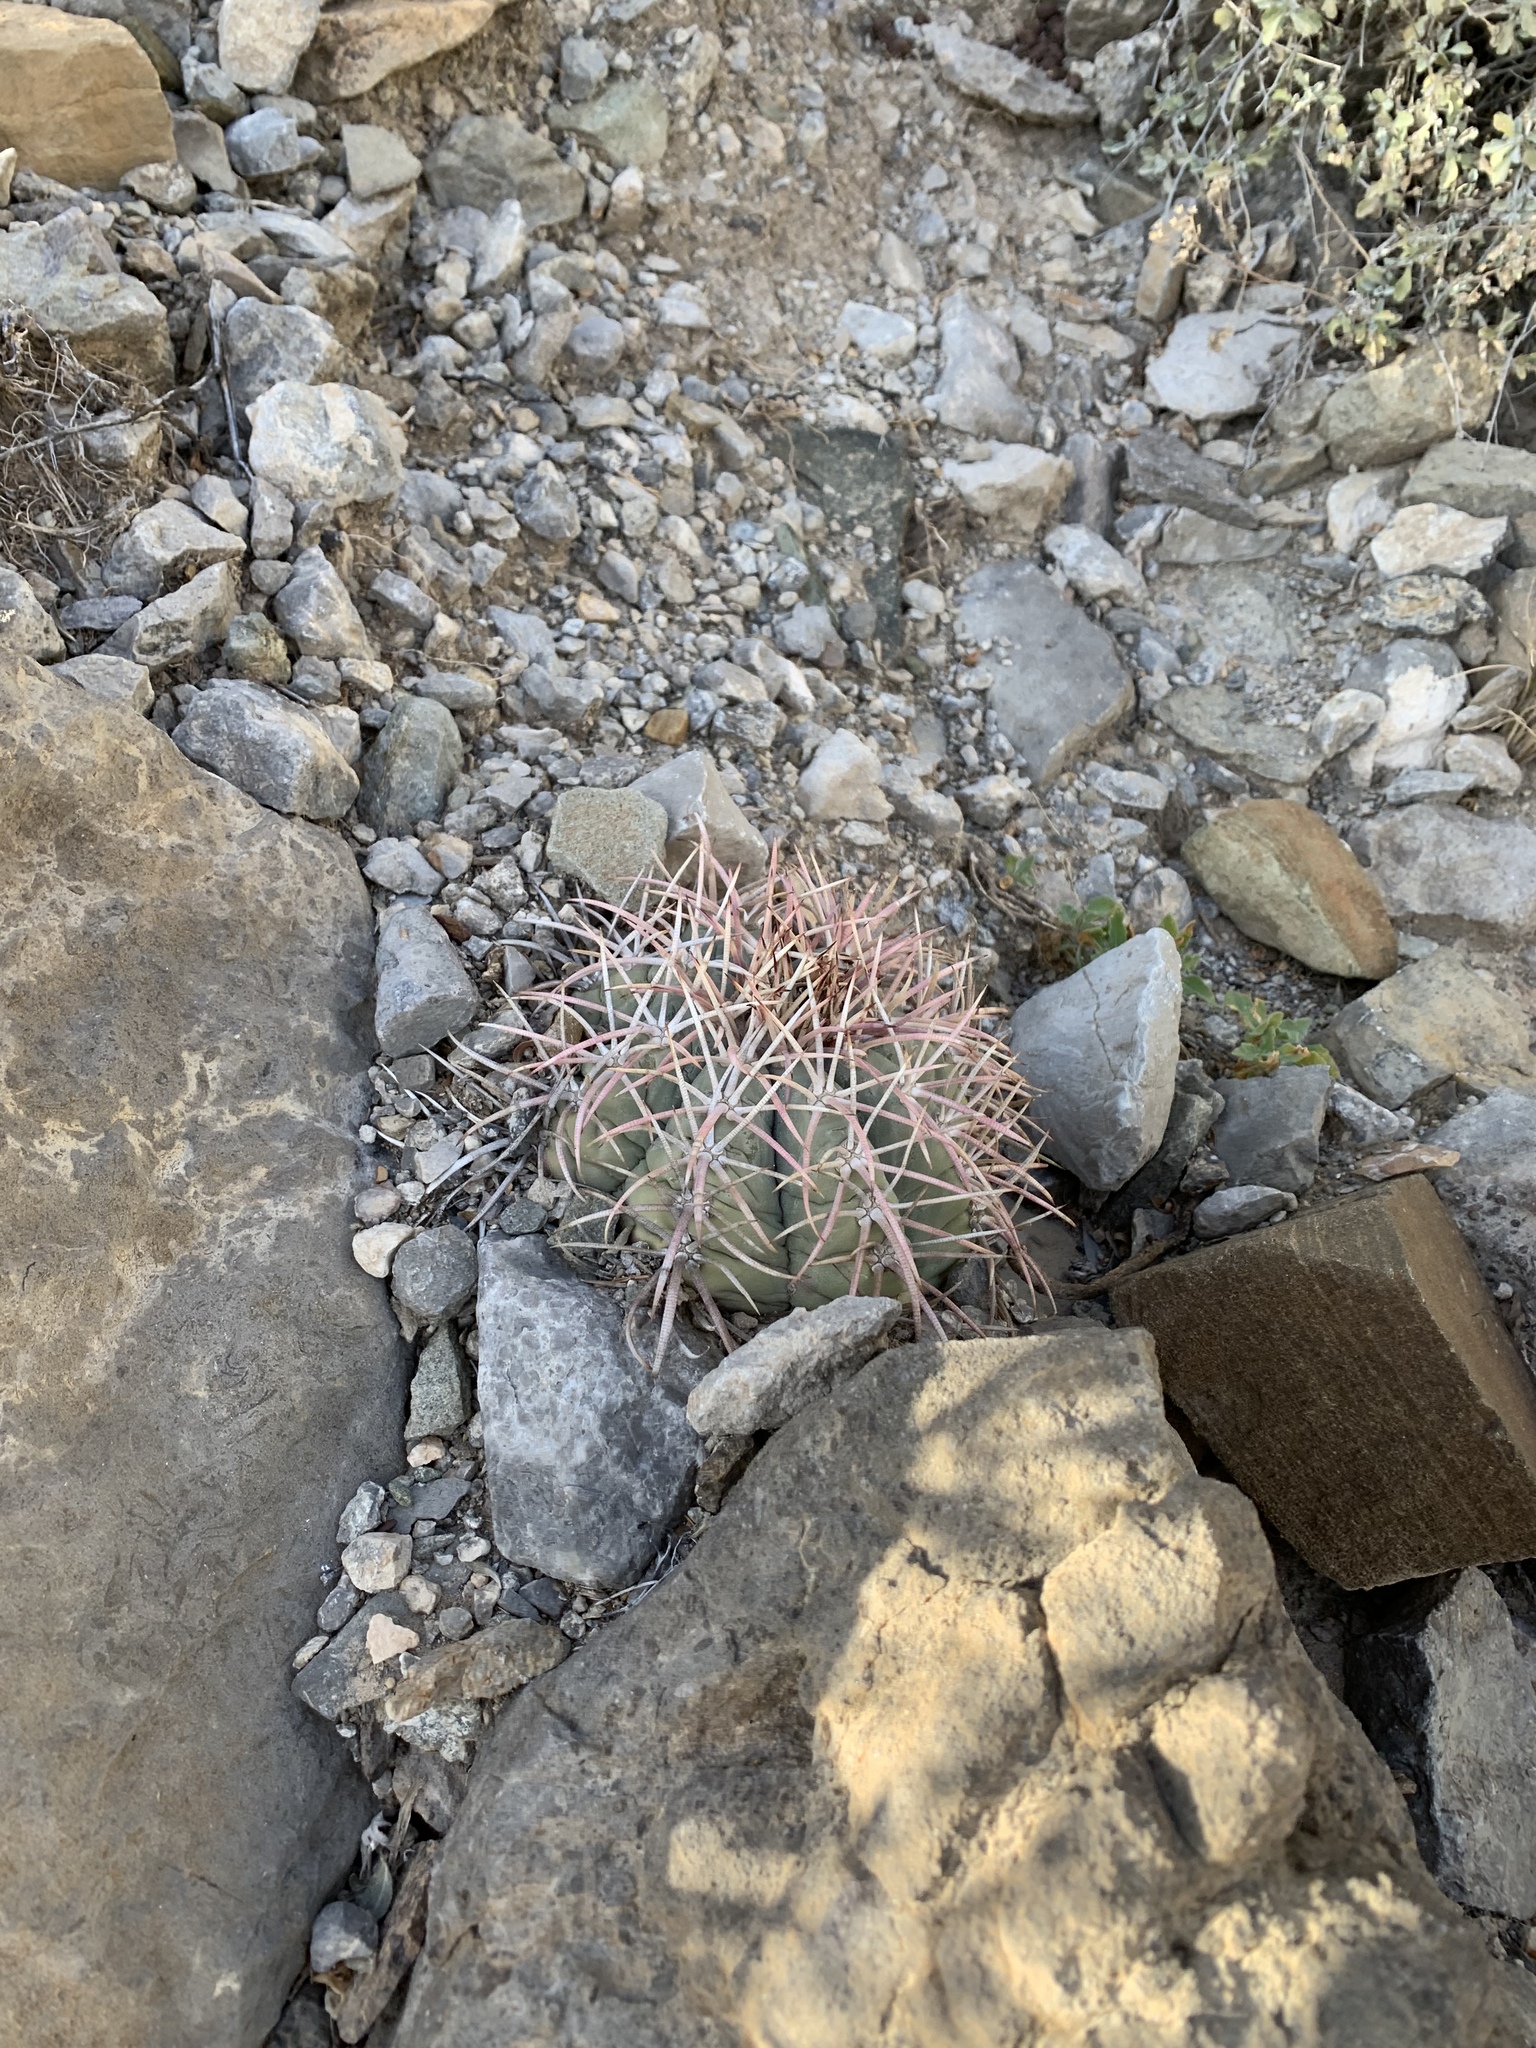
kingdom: Plantae
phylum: Tracheophyta
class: Magnoliopsida
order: Caryophyllales
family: Cactaceae
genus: Echinocactus
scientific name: Echinocactus horizonthalonius
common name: Devilshead
